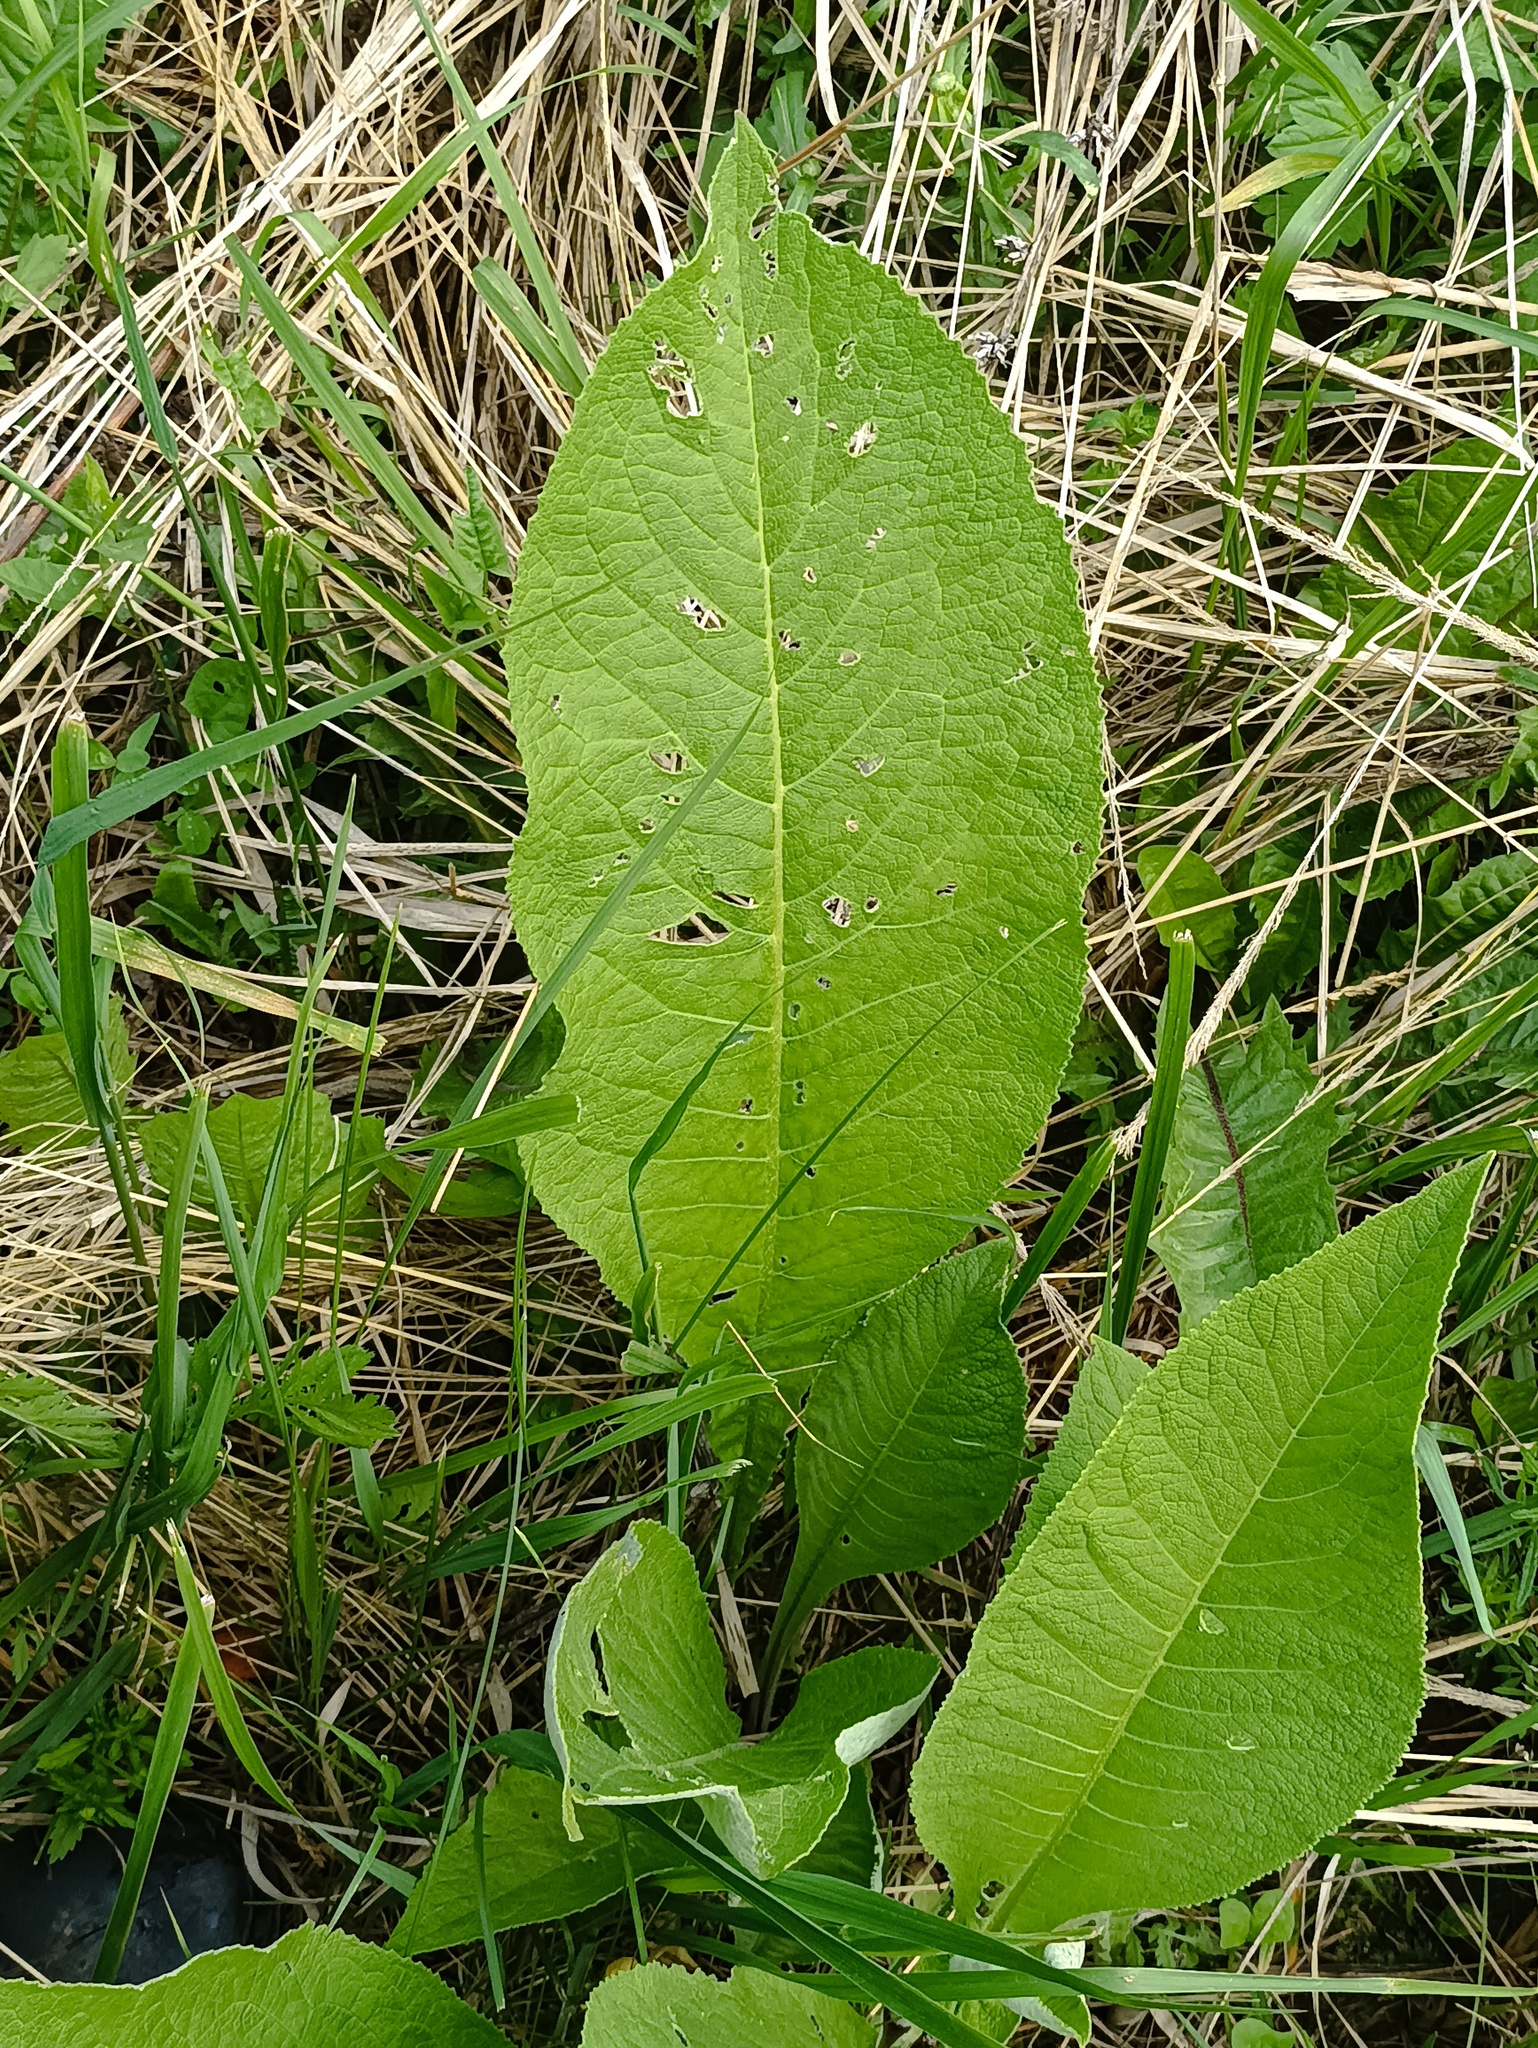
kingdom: Plantae
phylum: Tracheophyta
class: Magnoliopsida
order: Asterales
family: Asteraceae
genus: Inula
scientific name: Inula helenium
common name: Elecampane
